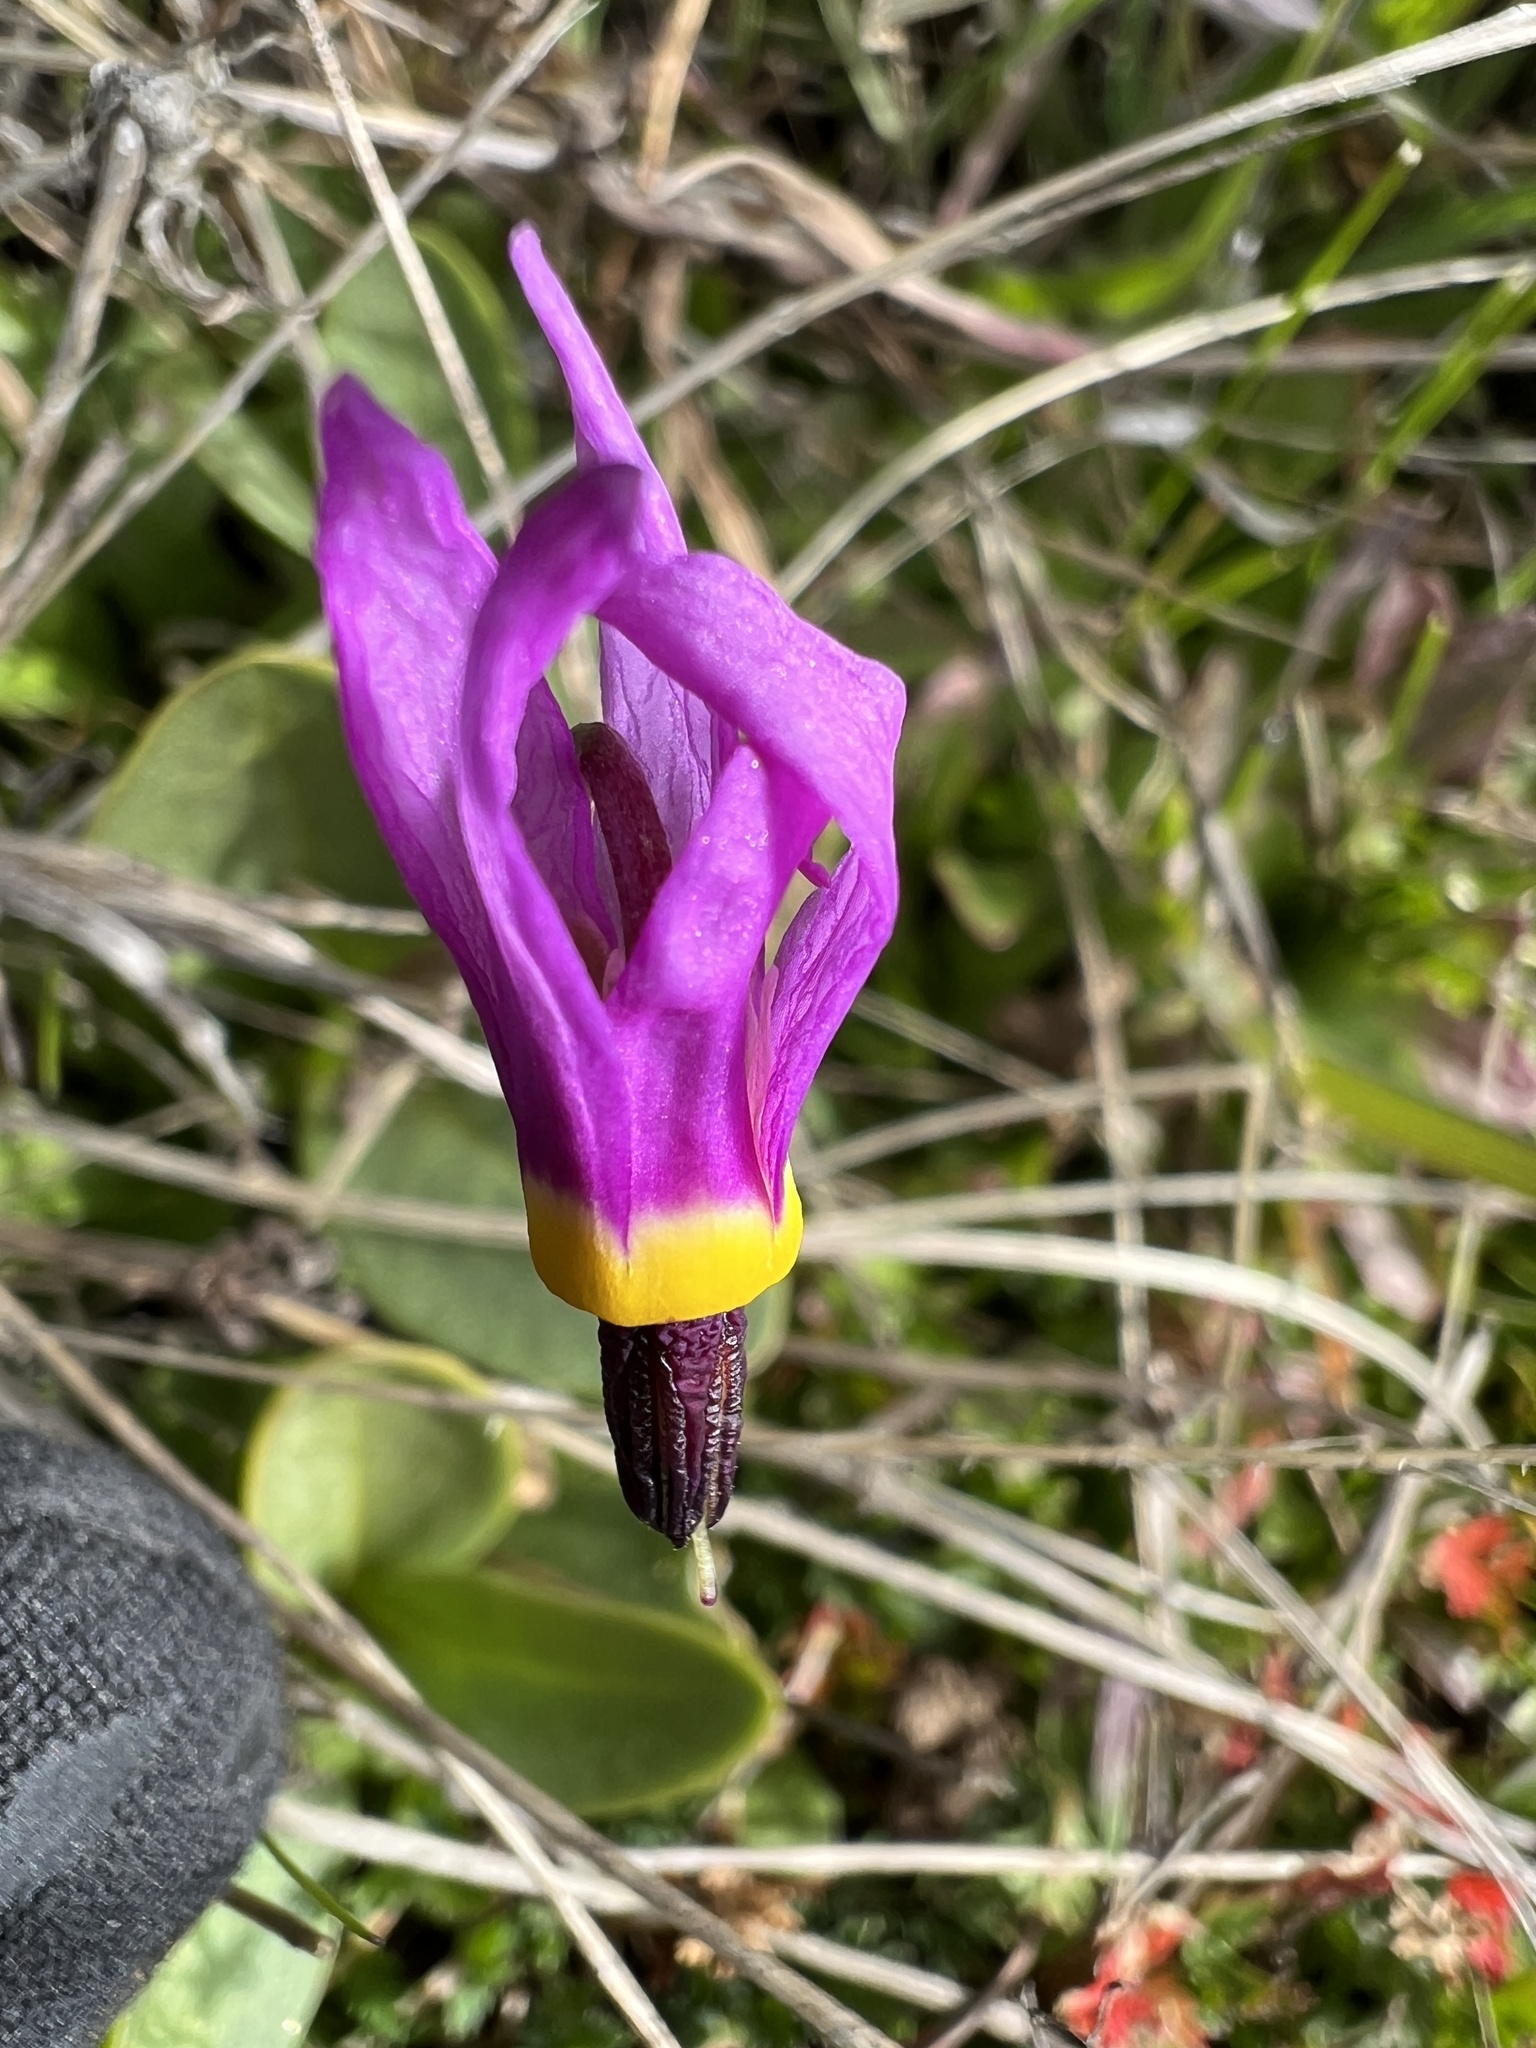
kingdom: Plantae
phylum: Tracheophyta
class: Magnoliopsida
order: Ericales
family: Primulaceae
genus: Dodecatheon
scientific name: Dodecatheon conjugens
